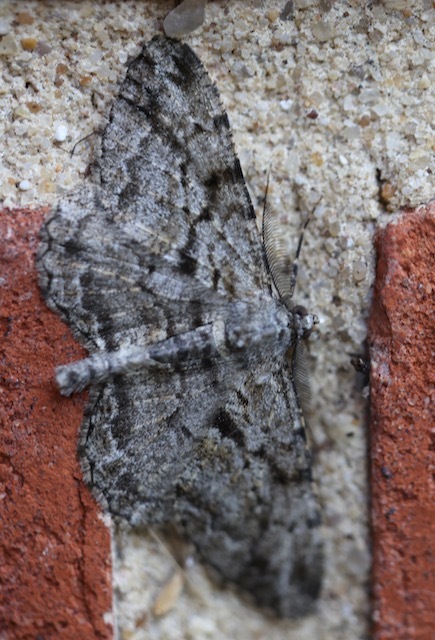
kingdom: Animalia
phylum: Arthropoda
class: Insecta
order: Lepidoptera
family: Geometridae
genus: Peribatodes
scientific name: Peribatodes rhomboidaria
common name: Willow beauty
